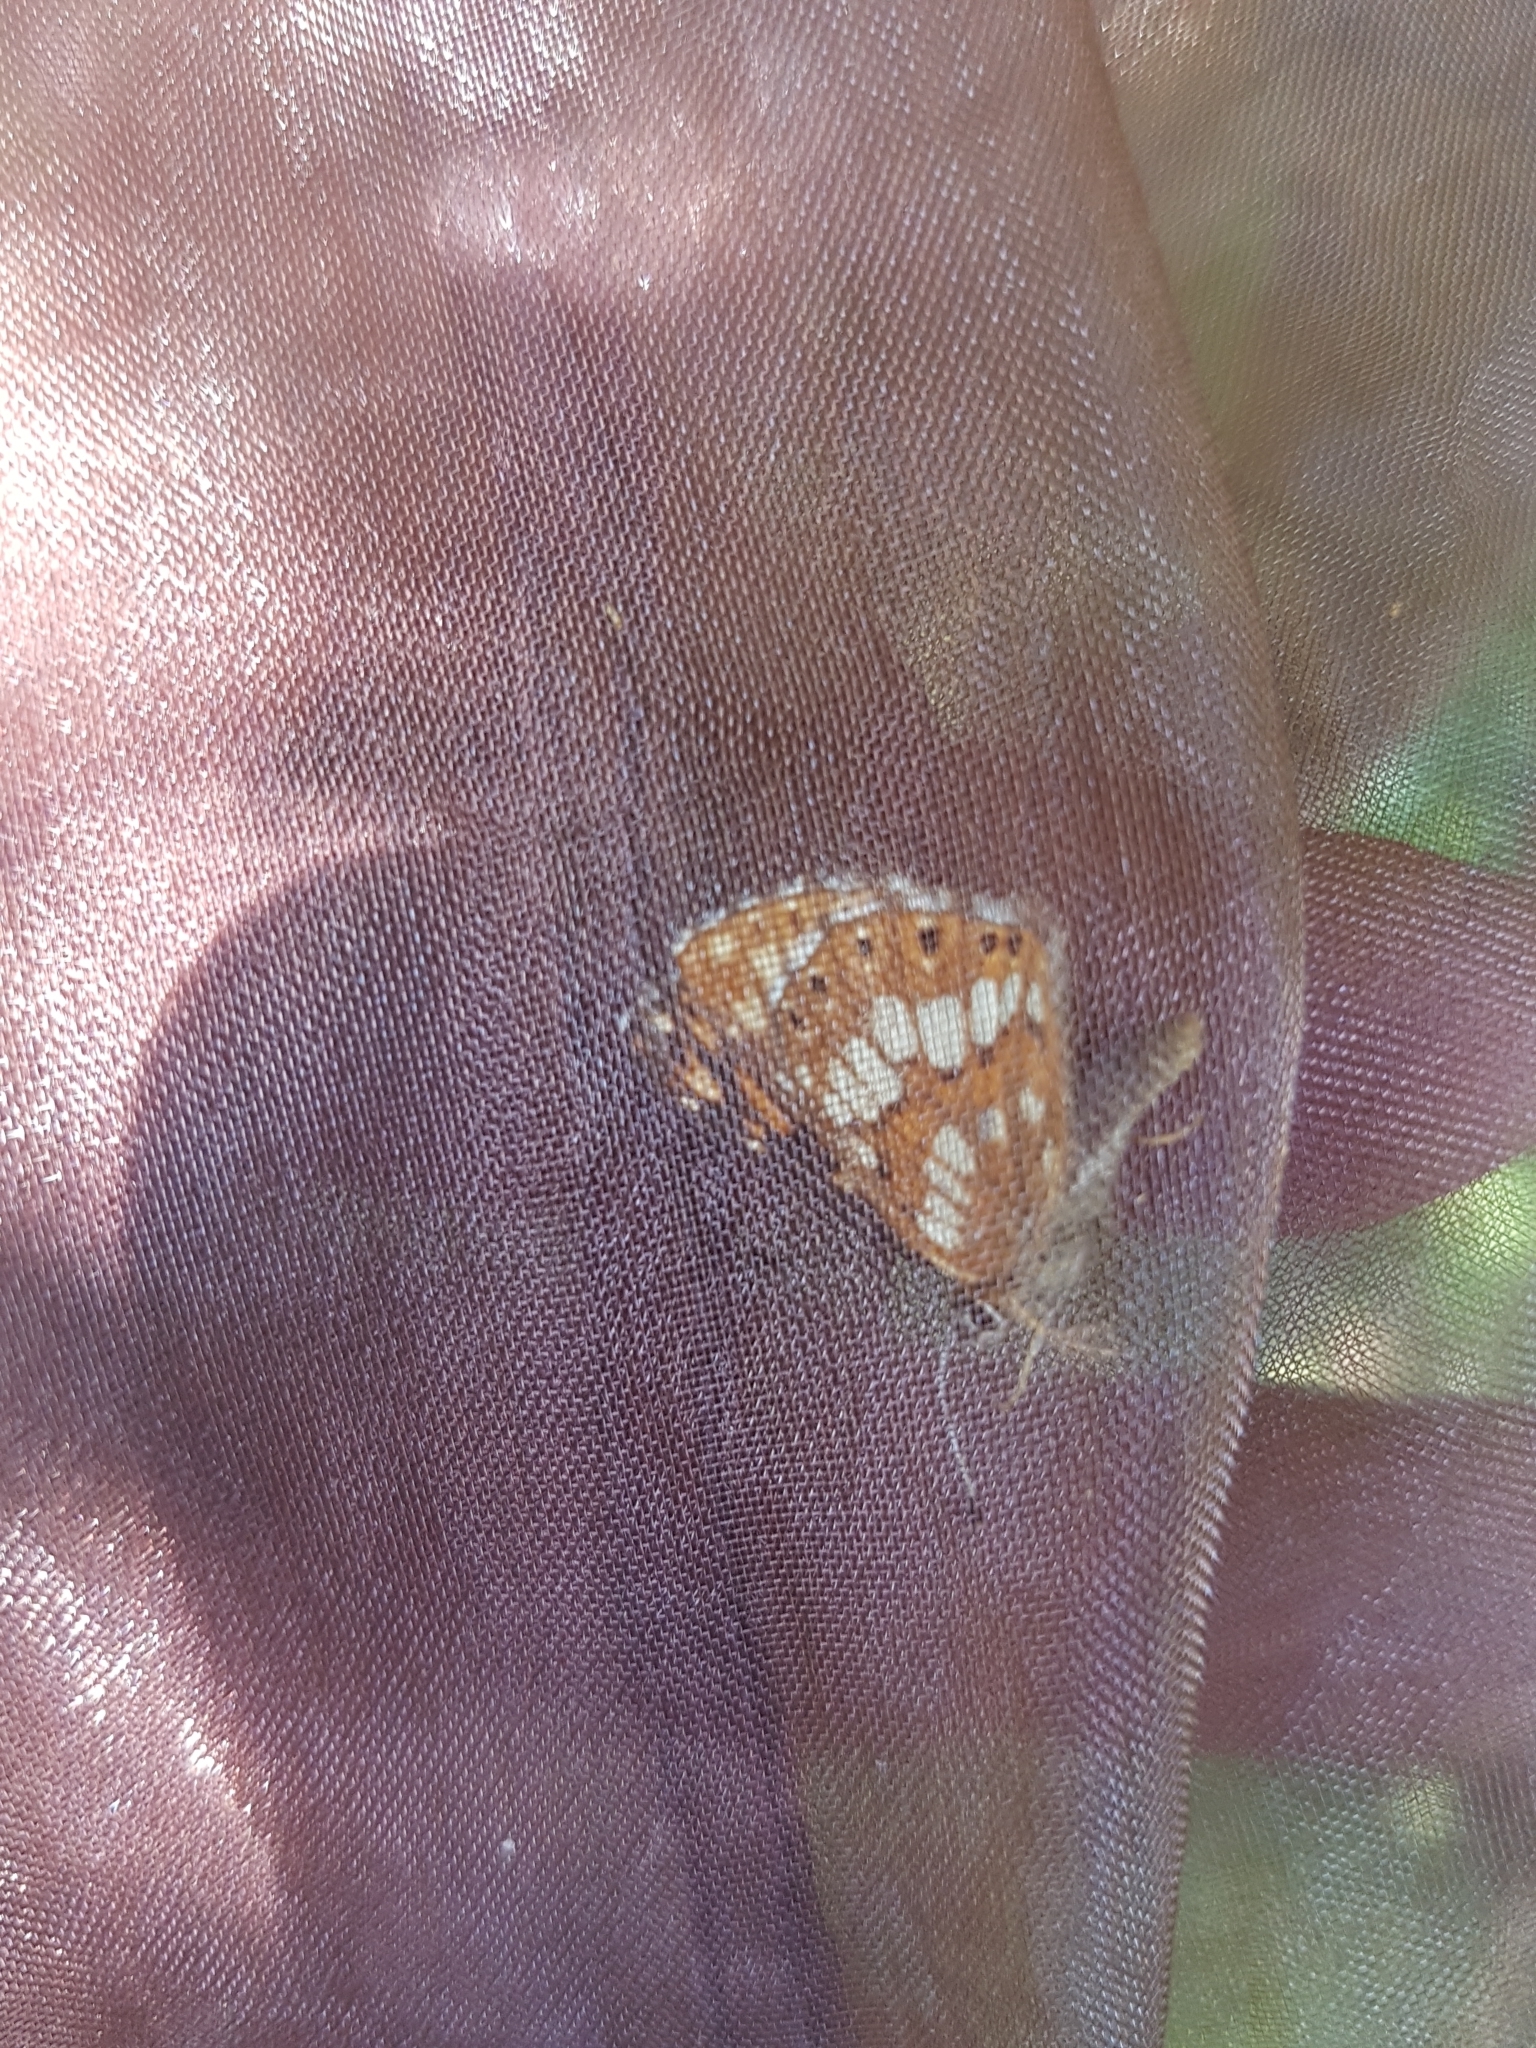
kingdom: Animalia
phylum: Arthropoda
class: Insecta
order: Lepidoptera
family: Riodinidae
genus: Hamearis
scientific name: Hamearis lucina
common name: Duke of burgundy fritillary
